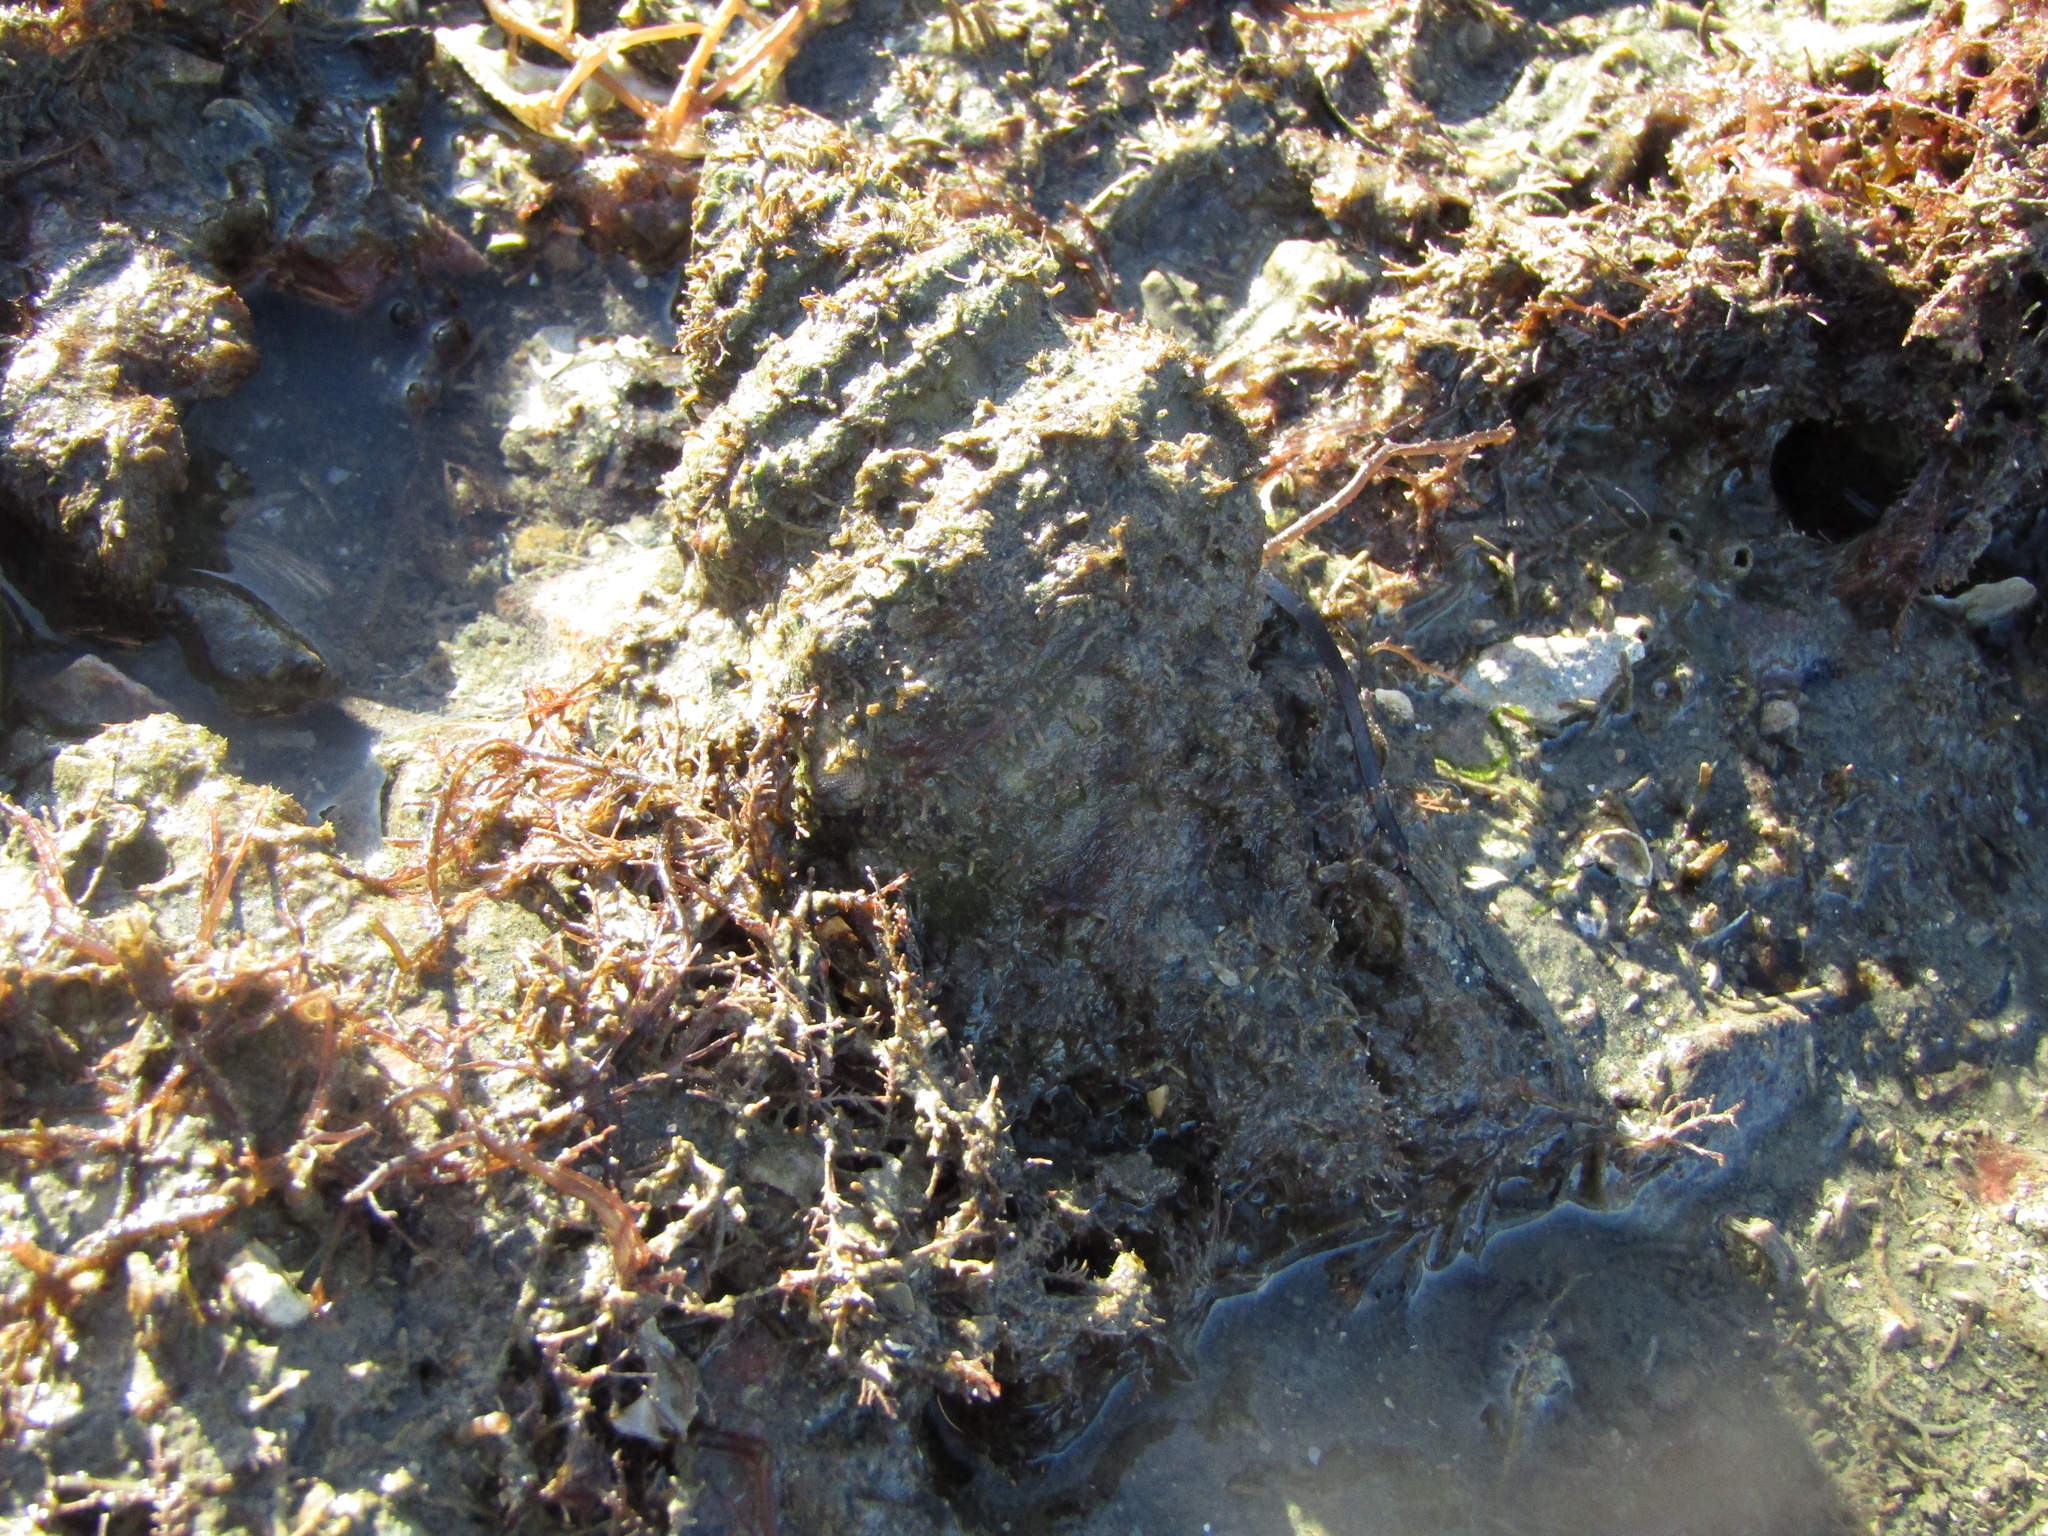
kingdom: Animalia
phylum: Mollusca
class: Gastropoda
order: Littorinimorpha
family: Cymatiidae
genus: Monoplex
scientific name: Monoplex parthenopeus
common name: Giant triton
